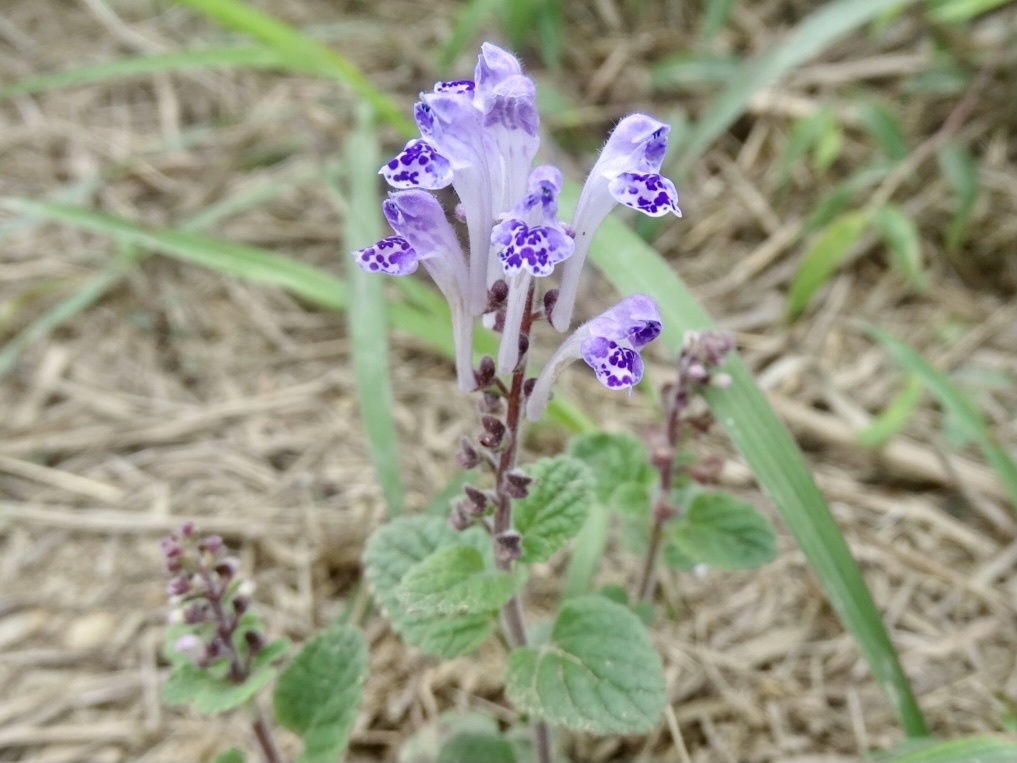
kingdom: Plantae
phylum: Tracheophyta
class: Magnoliopsida
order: Lamiales
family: Lamiaceae
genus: Scutellaria
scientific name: Scutellaria indica
